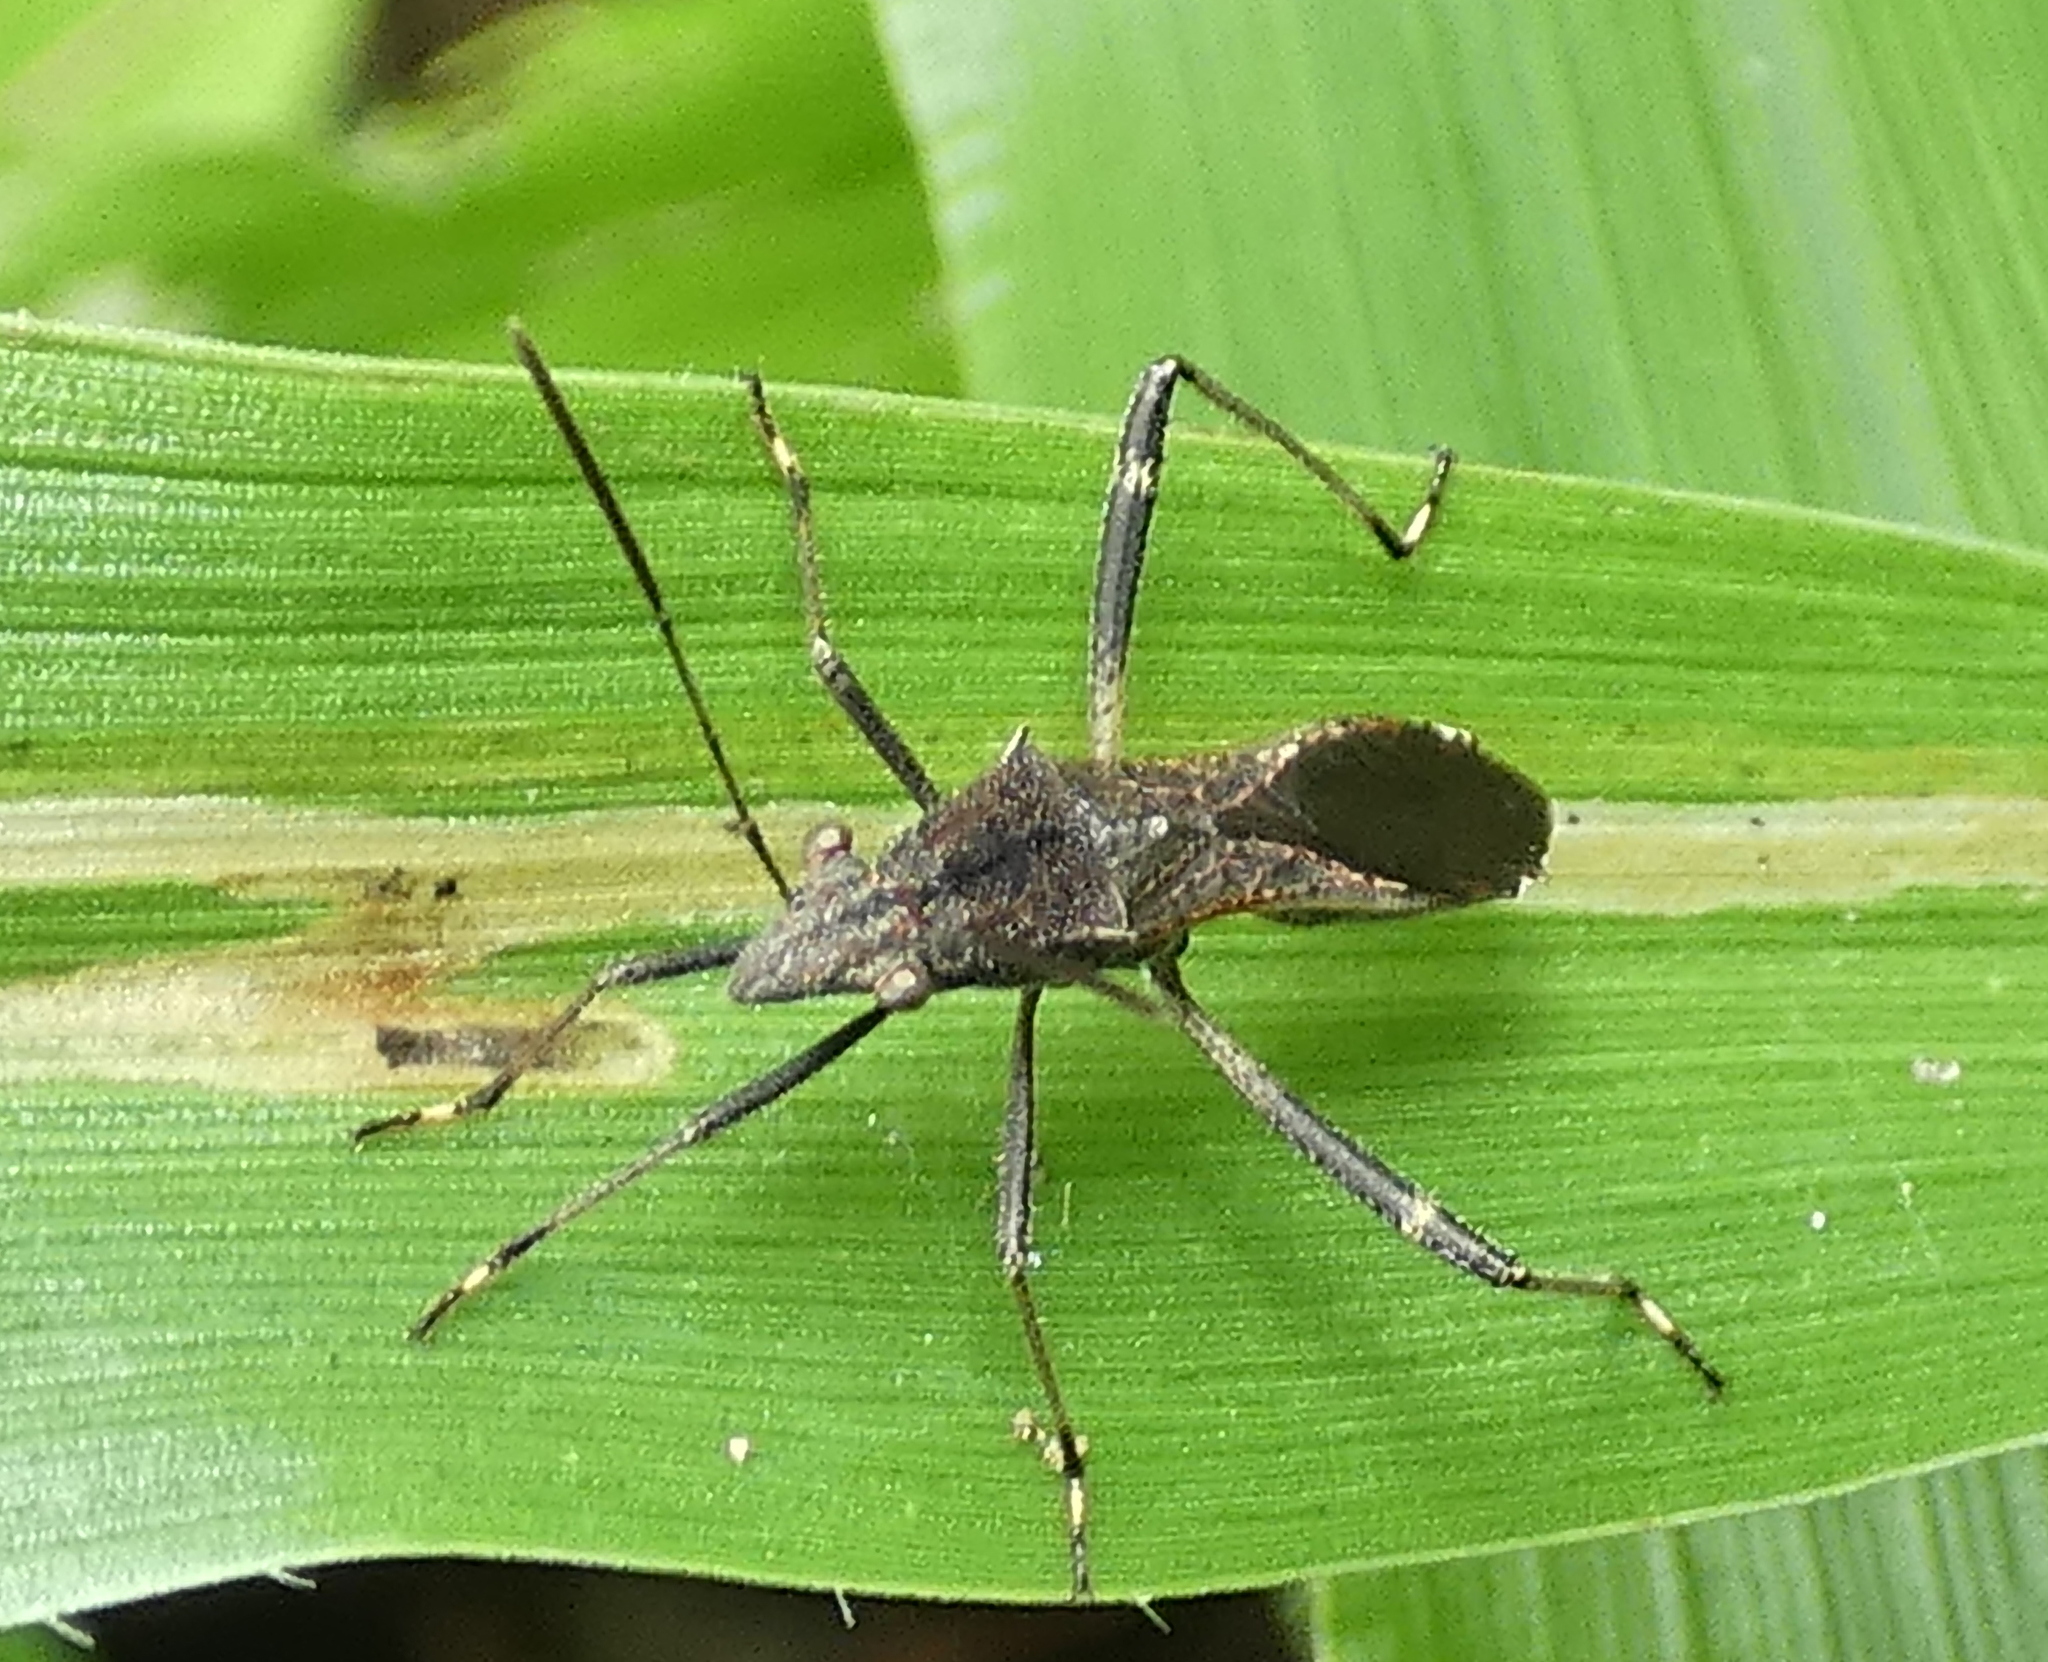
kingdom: Animalia
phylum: Arthropoda
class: Insecta
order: Hemiptera
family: Alydidae
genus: Neomegalotomus
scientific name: Neomegalotomus parvus
